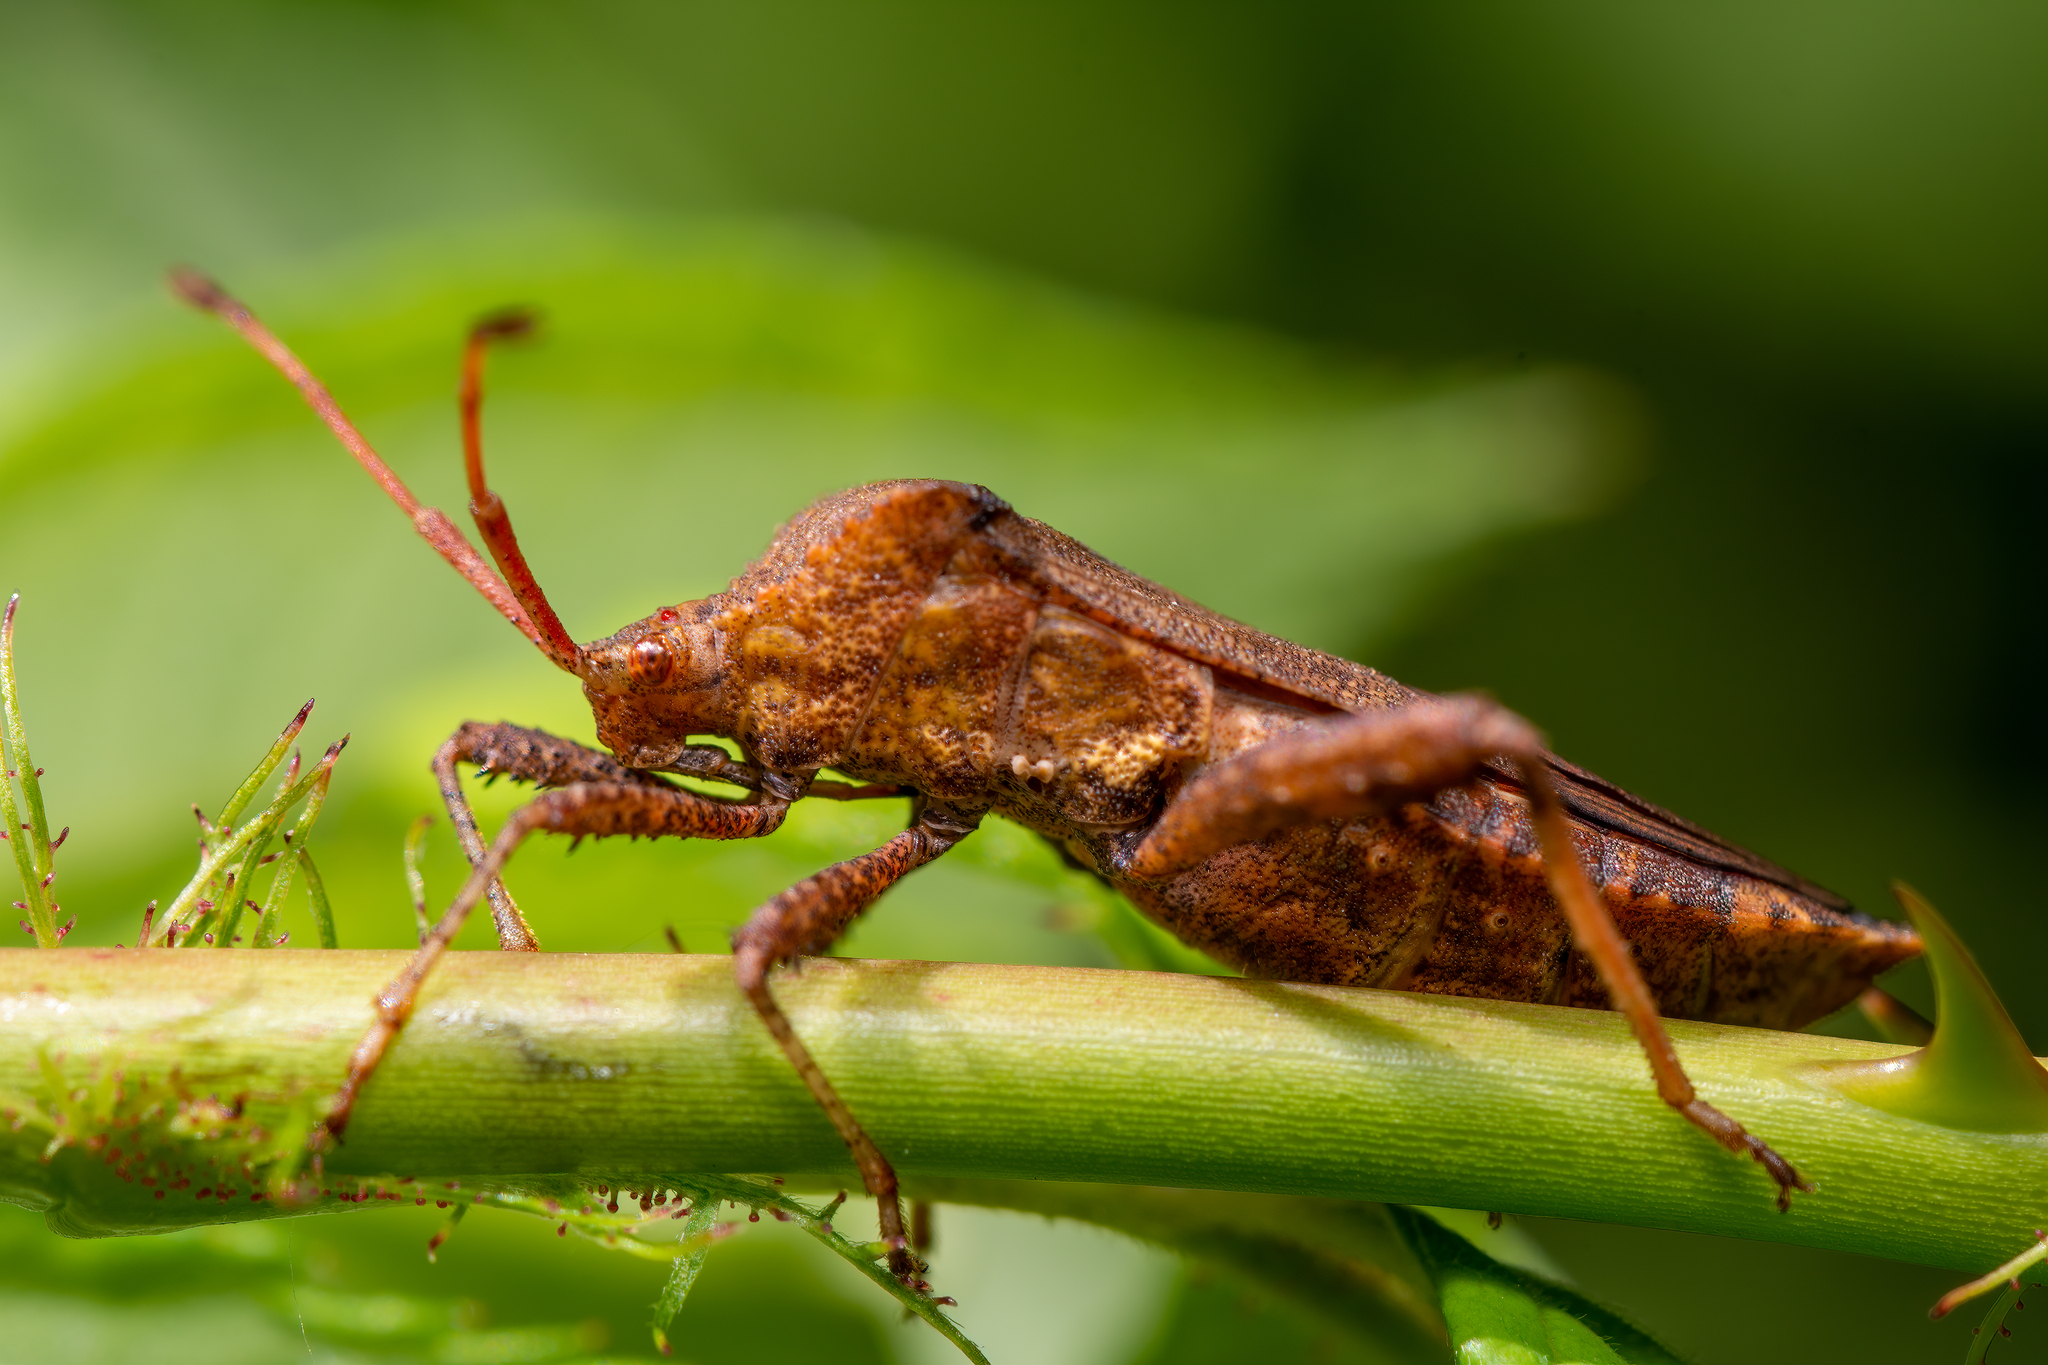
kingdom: Animalia
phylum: Arthropoda
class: Insecta
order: Hemiptera
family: Coreidae
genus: Euthochtha
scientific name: Euthochtha galeator
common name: Helmeted squash bug
